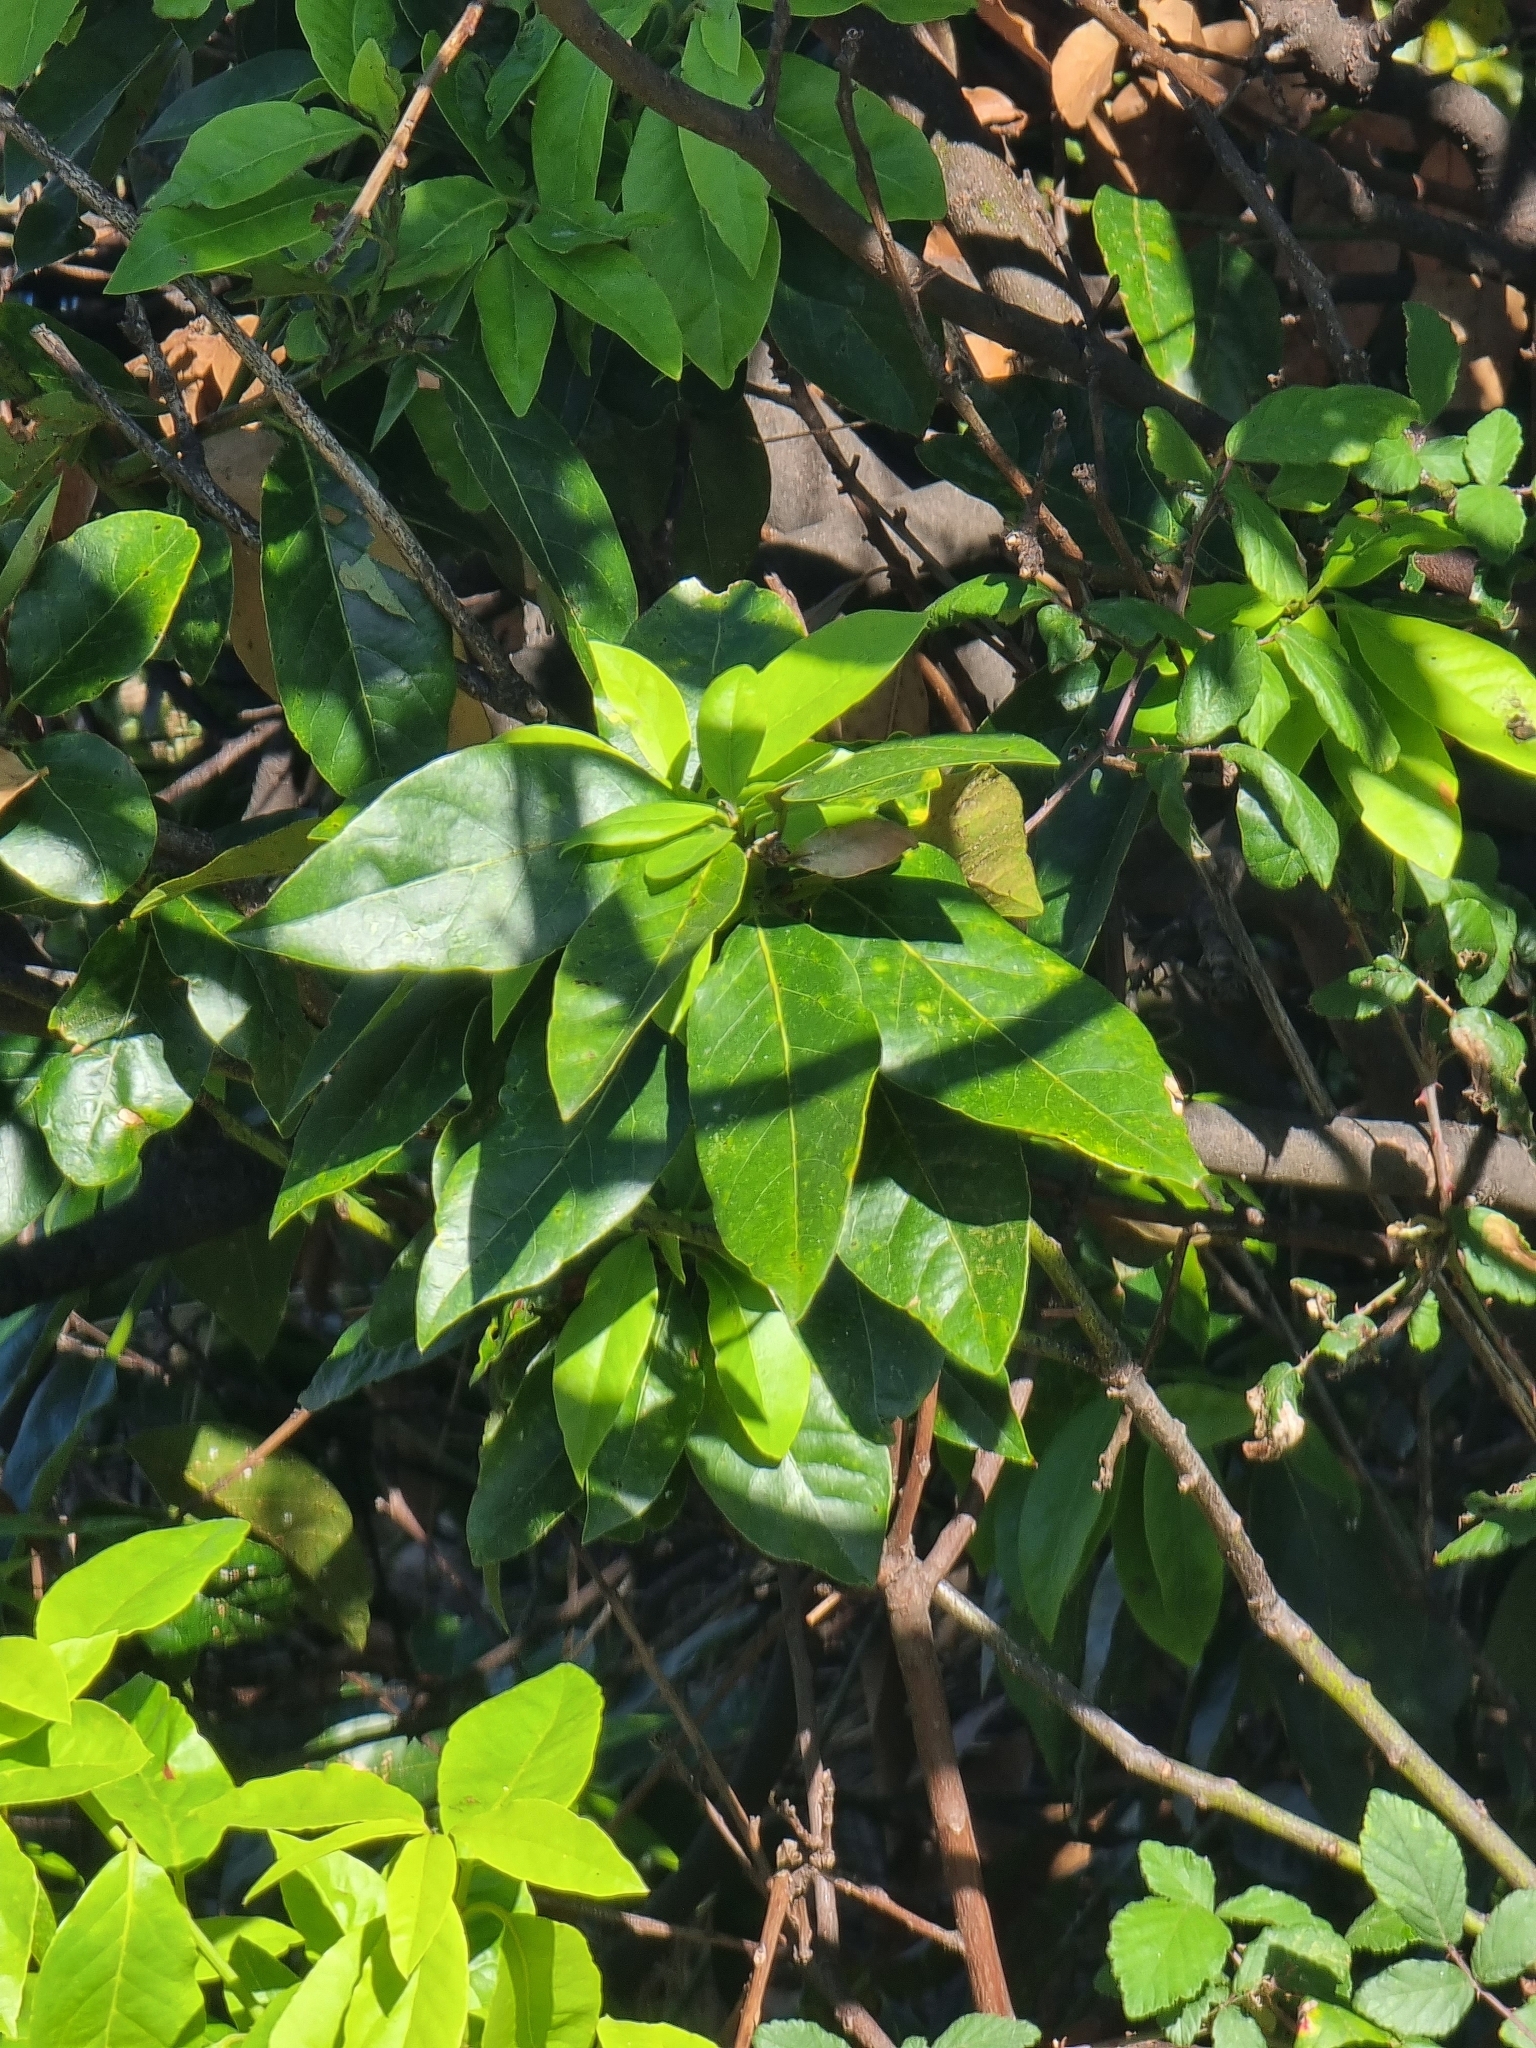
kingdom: Plantae
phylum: Tracheophyta
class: Magnoliopsida
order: Laurales
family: Lauraceae
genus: Laurus
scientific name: Laurus novocanariensis
